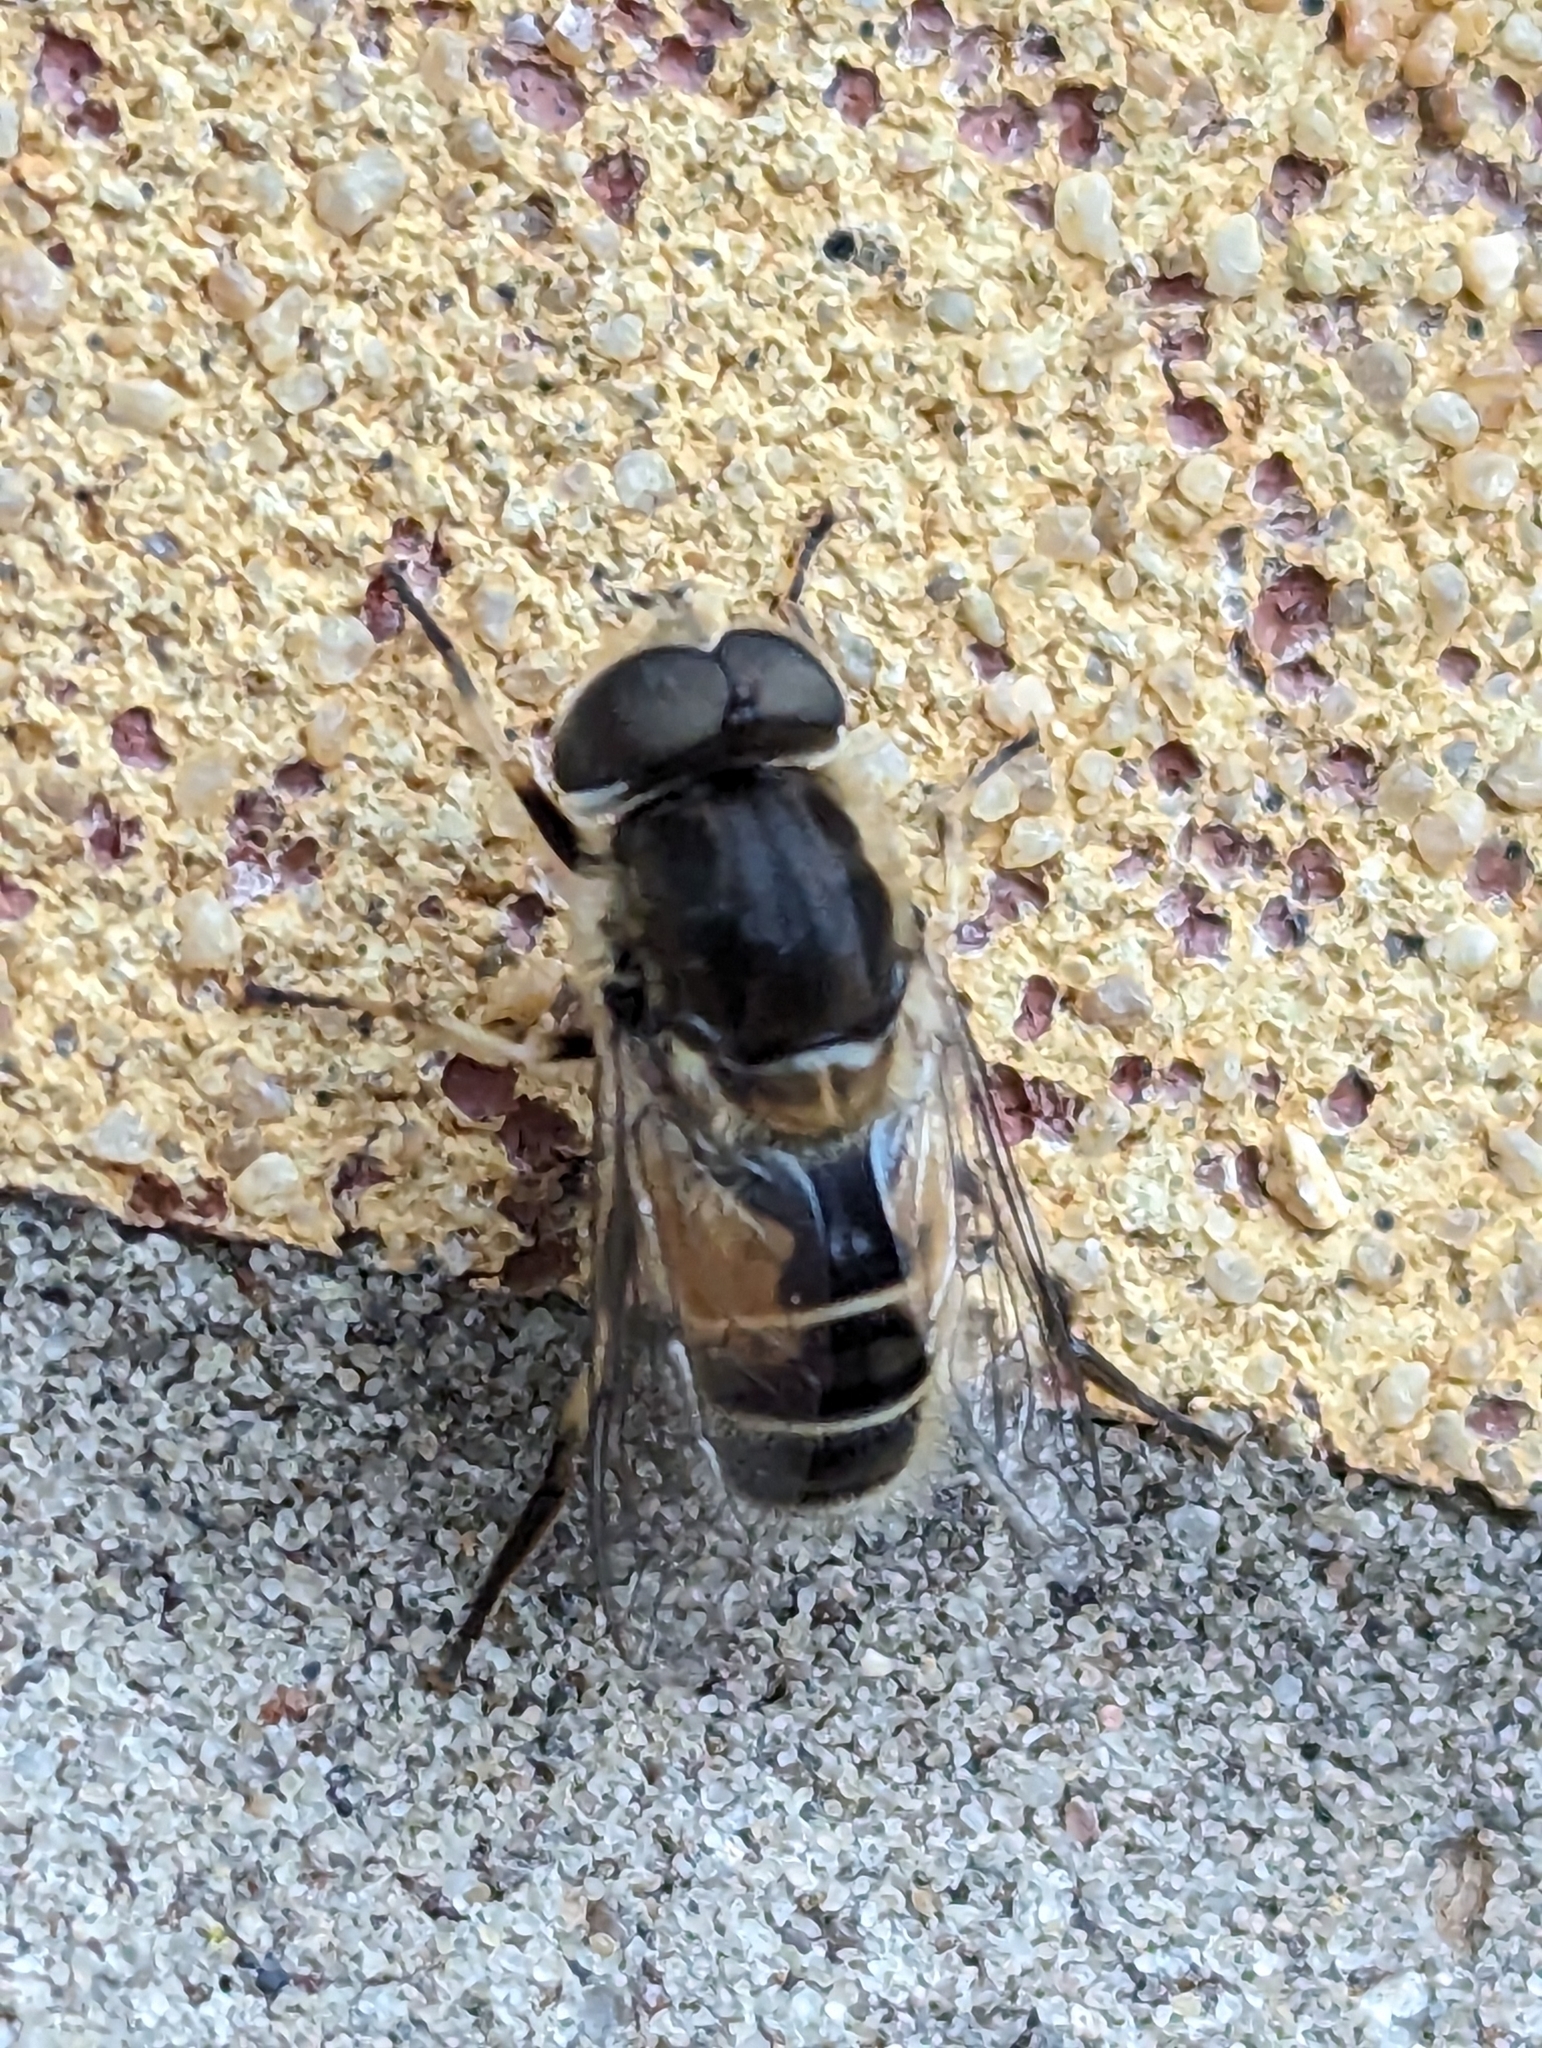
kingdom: Animalia
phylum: Arthropoda
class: Insecta
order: Diptera
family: Syrphidae
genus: Eristalis
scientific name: Eristalis arbustorum
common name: Hover fly
